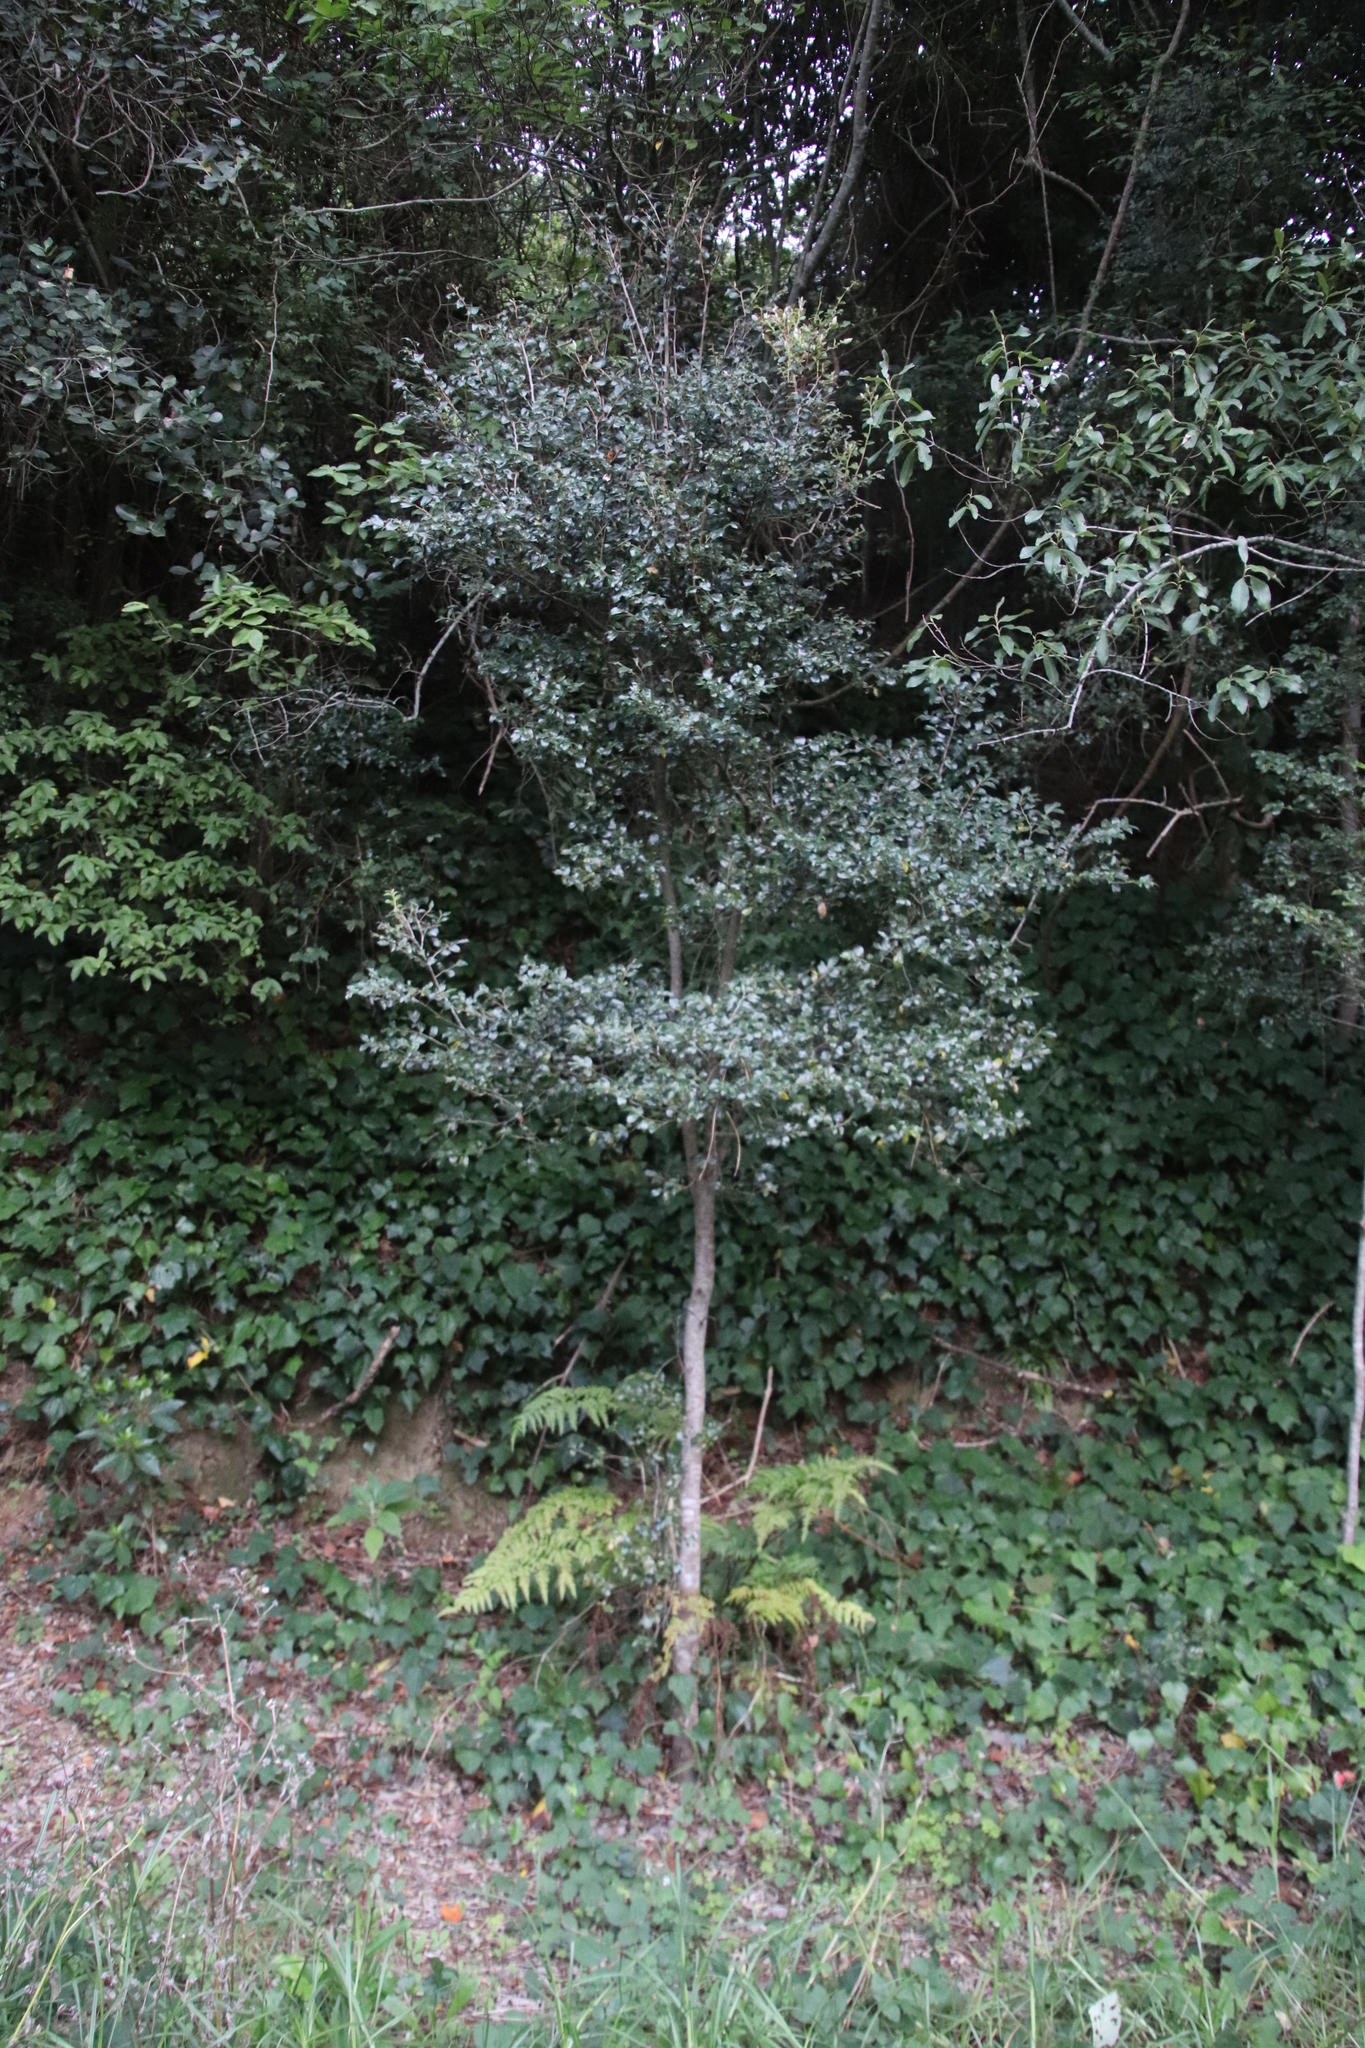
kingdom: Plantae
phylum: Tracheophyta
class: Magnoliopsida
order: Ericales
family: Ebenaceae
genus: Diospyros
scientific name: Diospyros whyteana
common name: Bladder-nut
